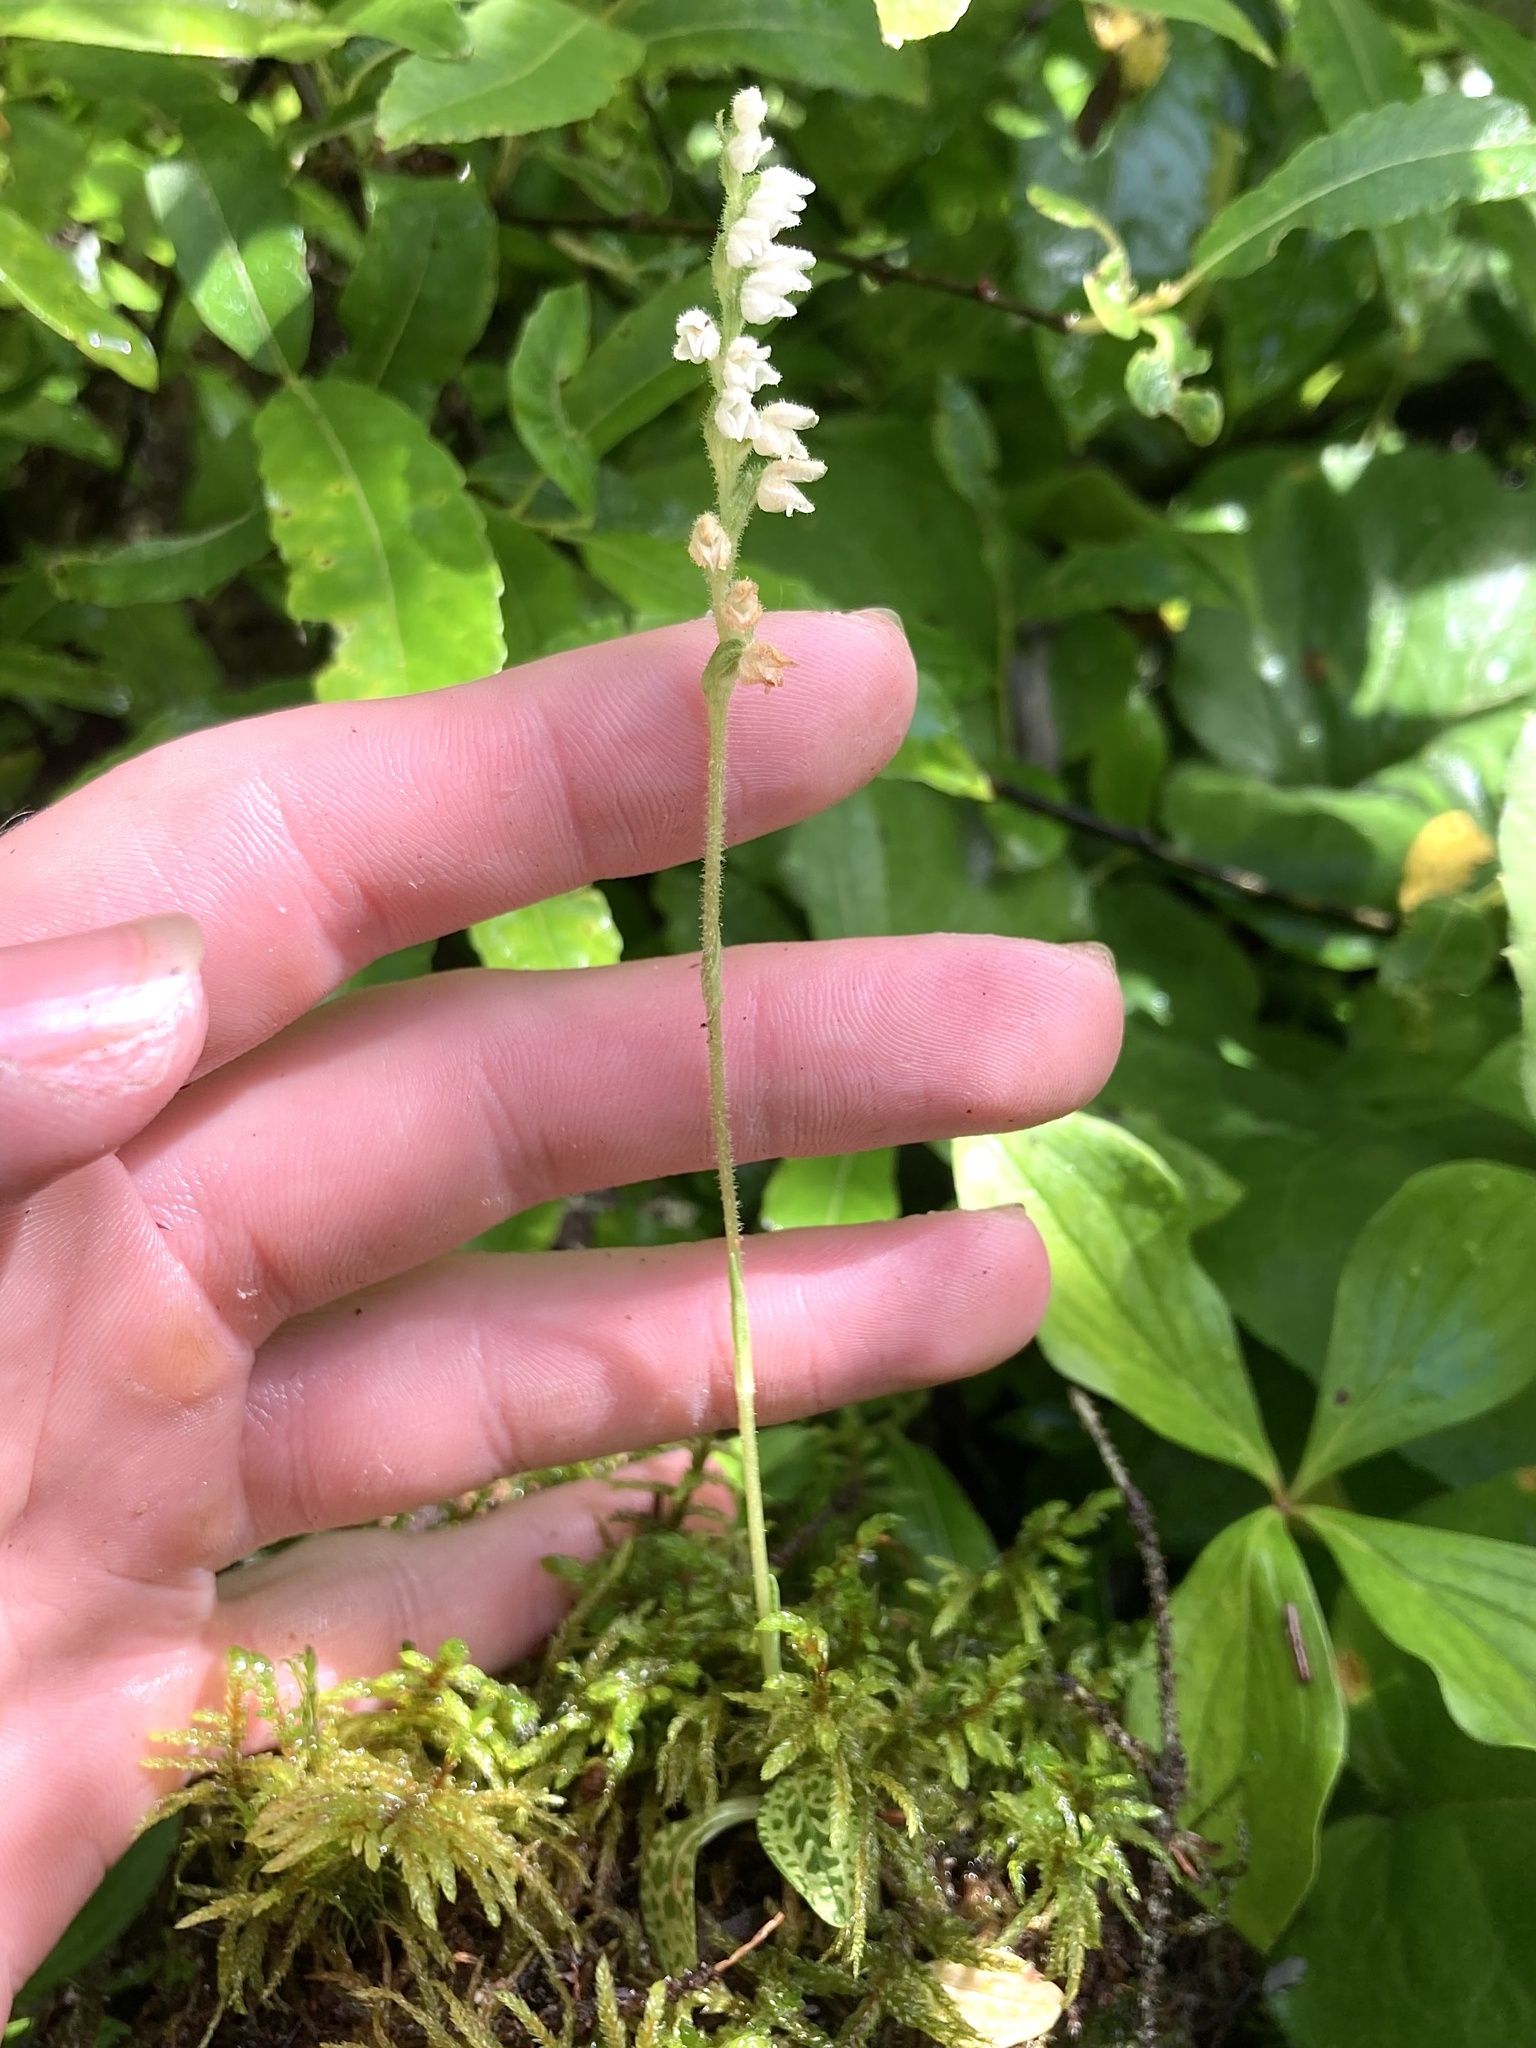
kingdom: Plantae
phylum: Tracheophyta
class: Liliopsida
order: Asparagales
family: Orchidaceae
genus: Goodyera
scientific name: Goodyera repens
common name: Creeping lady's-tresses
